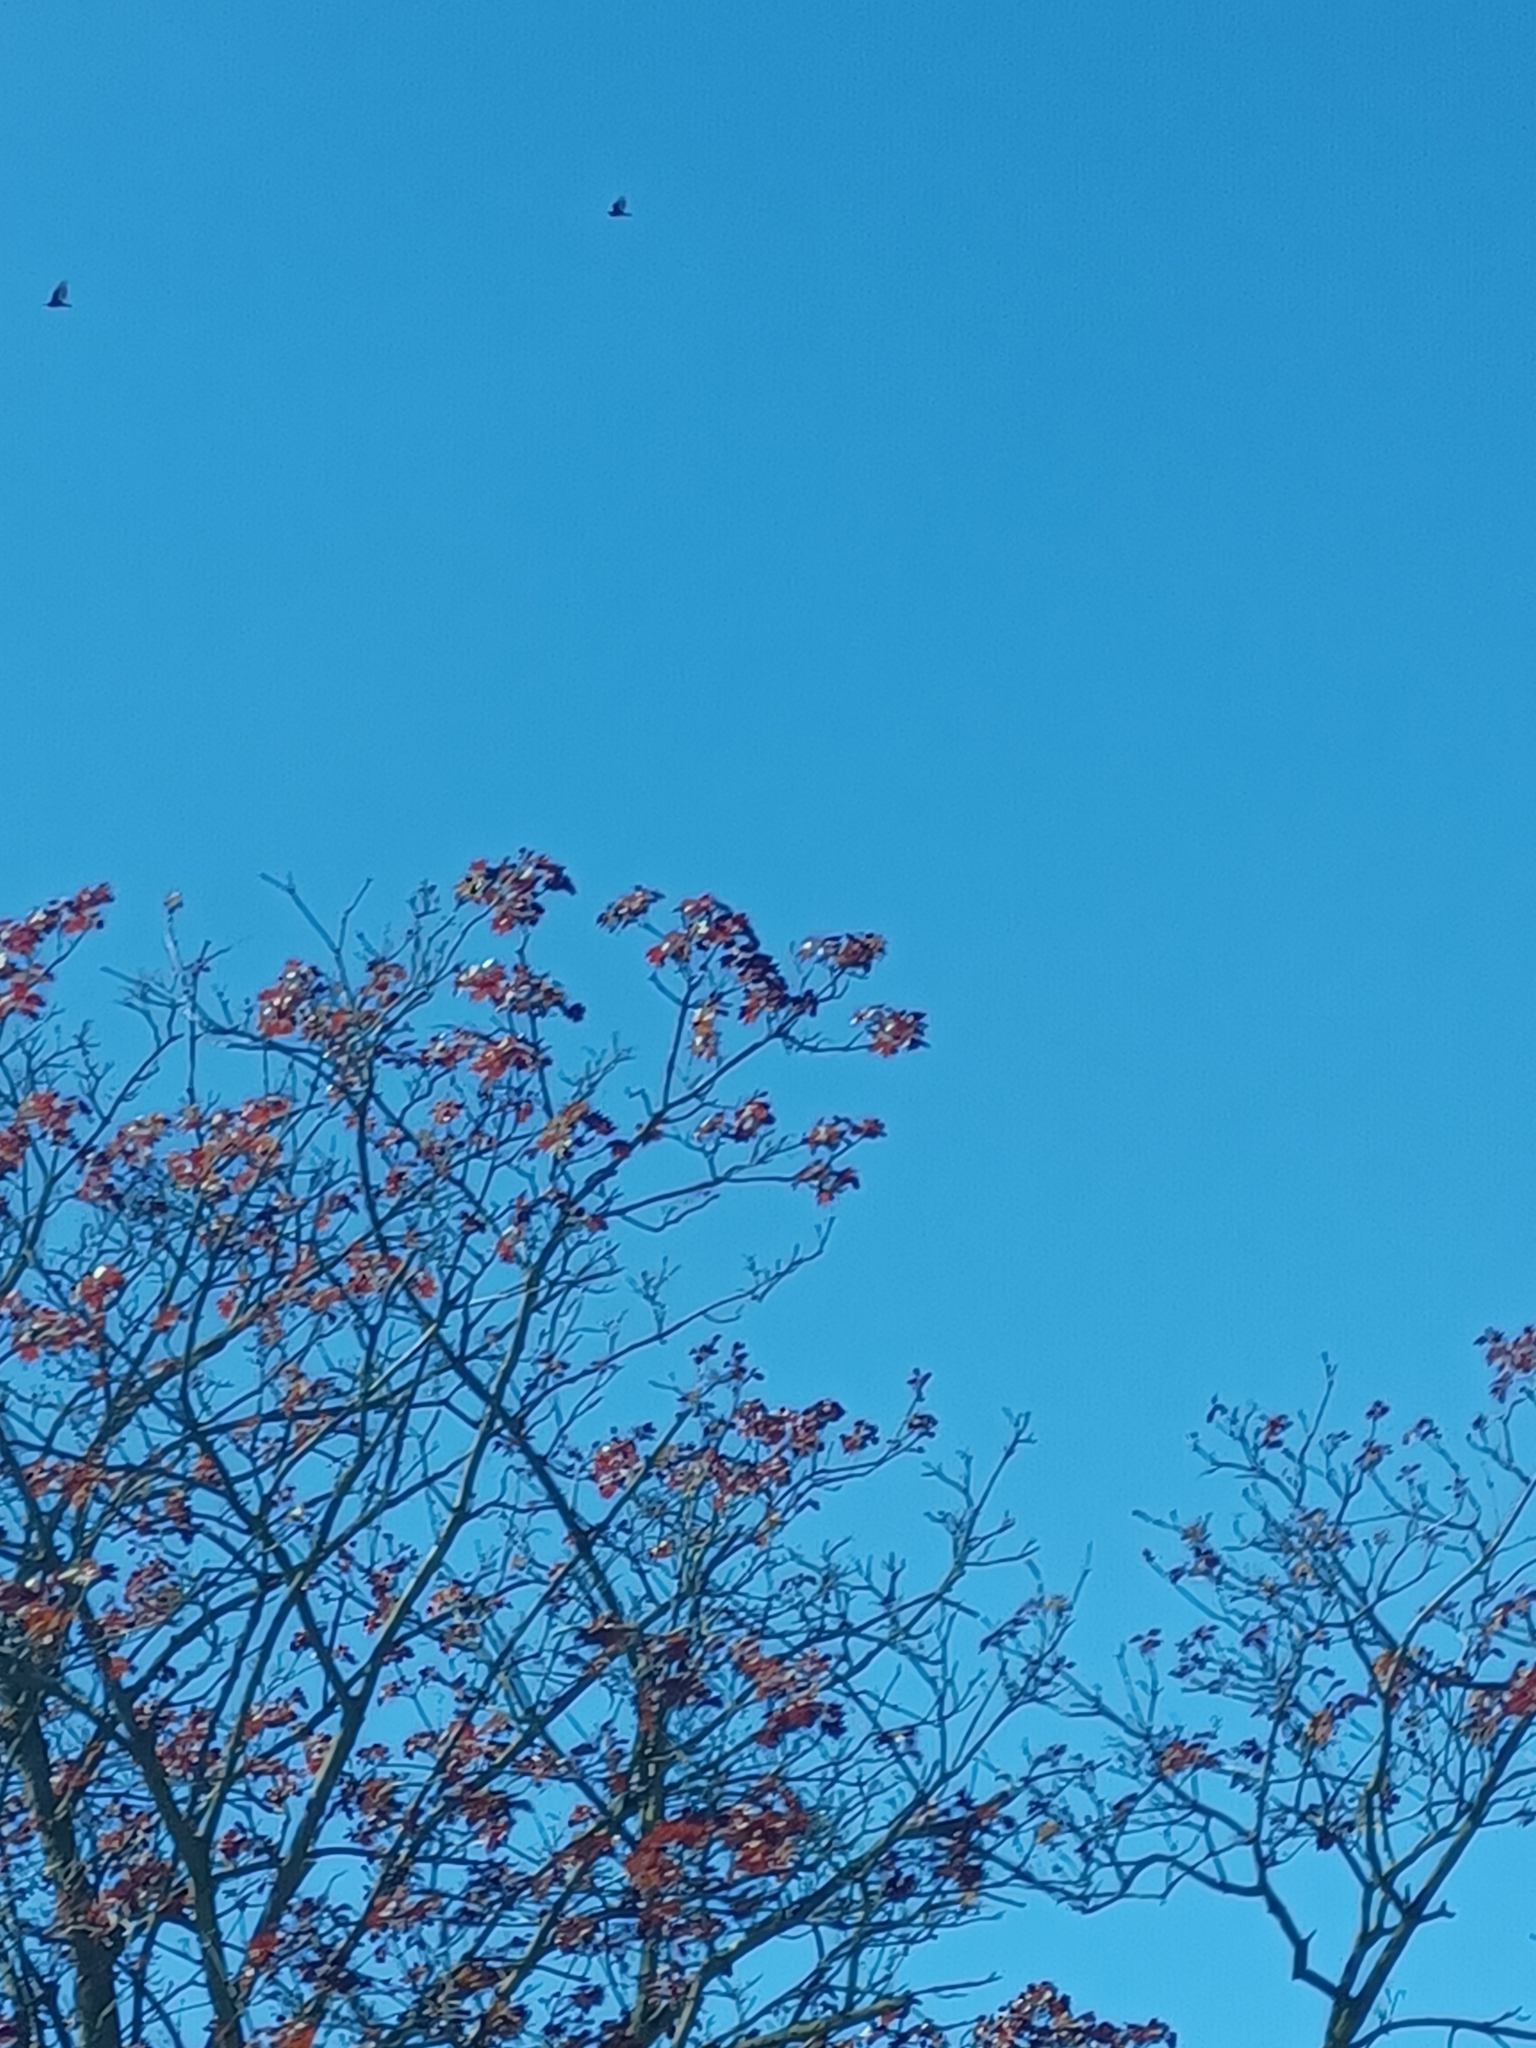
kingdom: Animalia
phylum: Chordata
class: Aves
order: Accipitriformes
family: Cathartidae
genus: Cathartes
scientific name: Cathartes aura
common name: Turkey vulture
